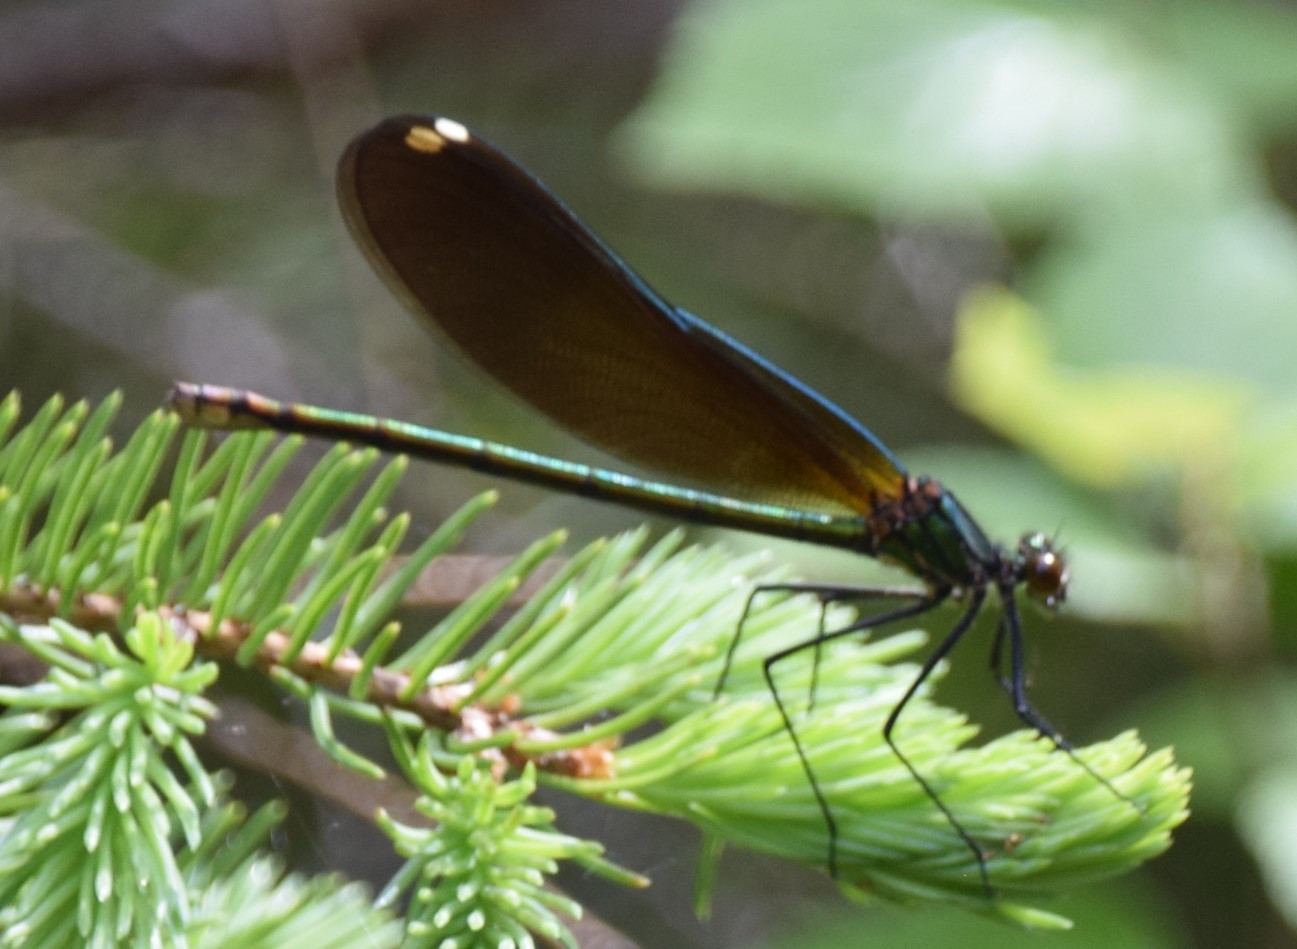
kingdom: Animalia
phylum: Arthropoda
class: Insecta
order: Odonata
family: Calopterygidae
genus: Calopteryx
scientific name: Calopteryx maculata
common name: Ebony jewelwing
